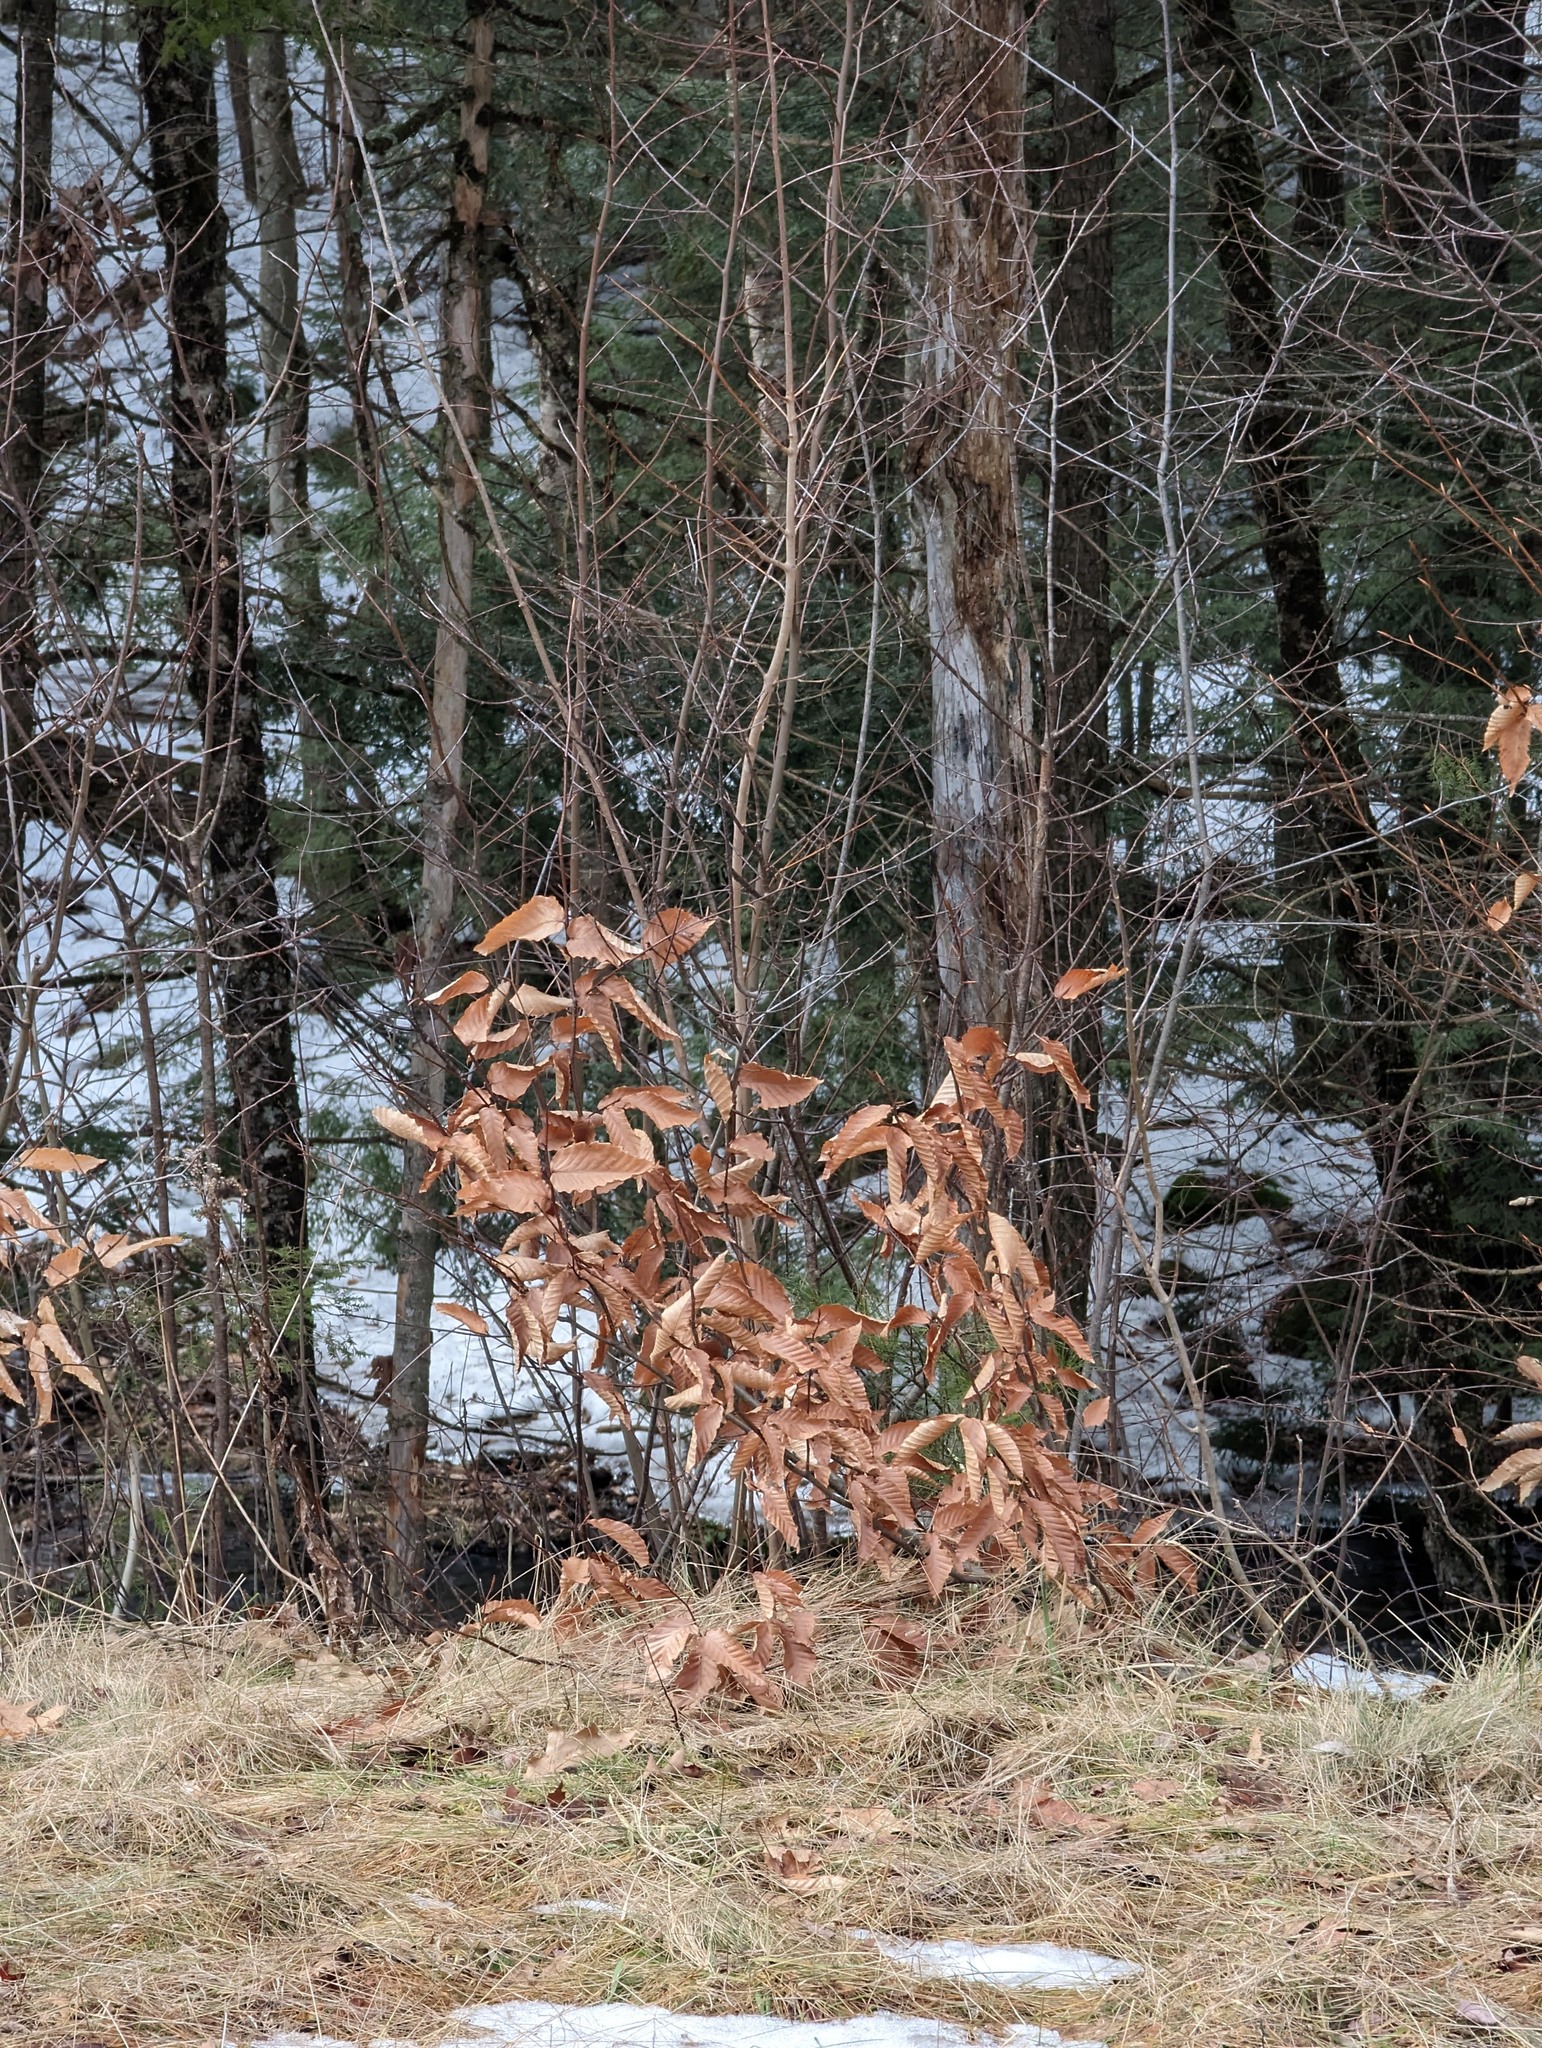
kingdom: Plantae
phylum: Tracheophyta
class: Magnoliopsida
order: Fagales
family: Fagaceae
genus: Fagus
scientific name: Fagus grandifolia
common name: American beech
